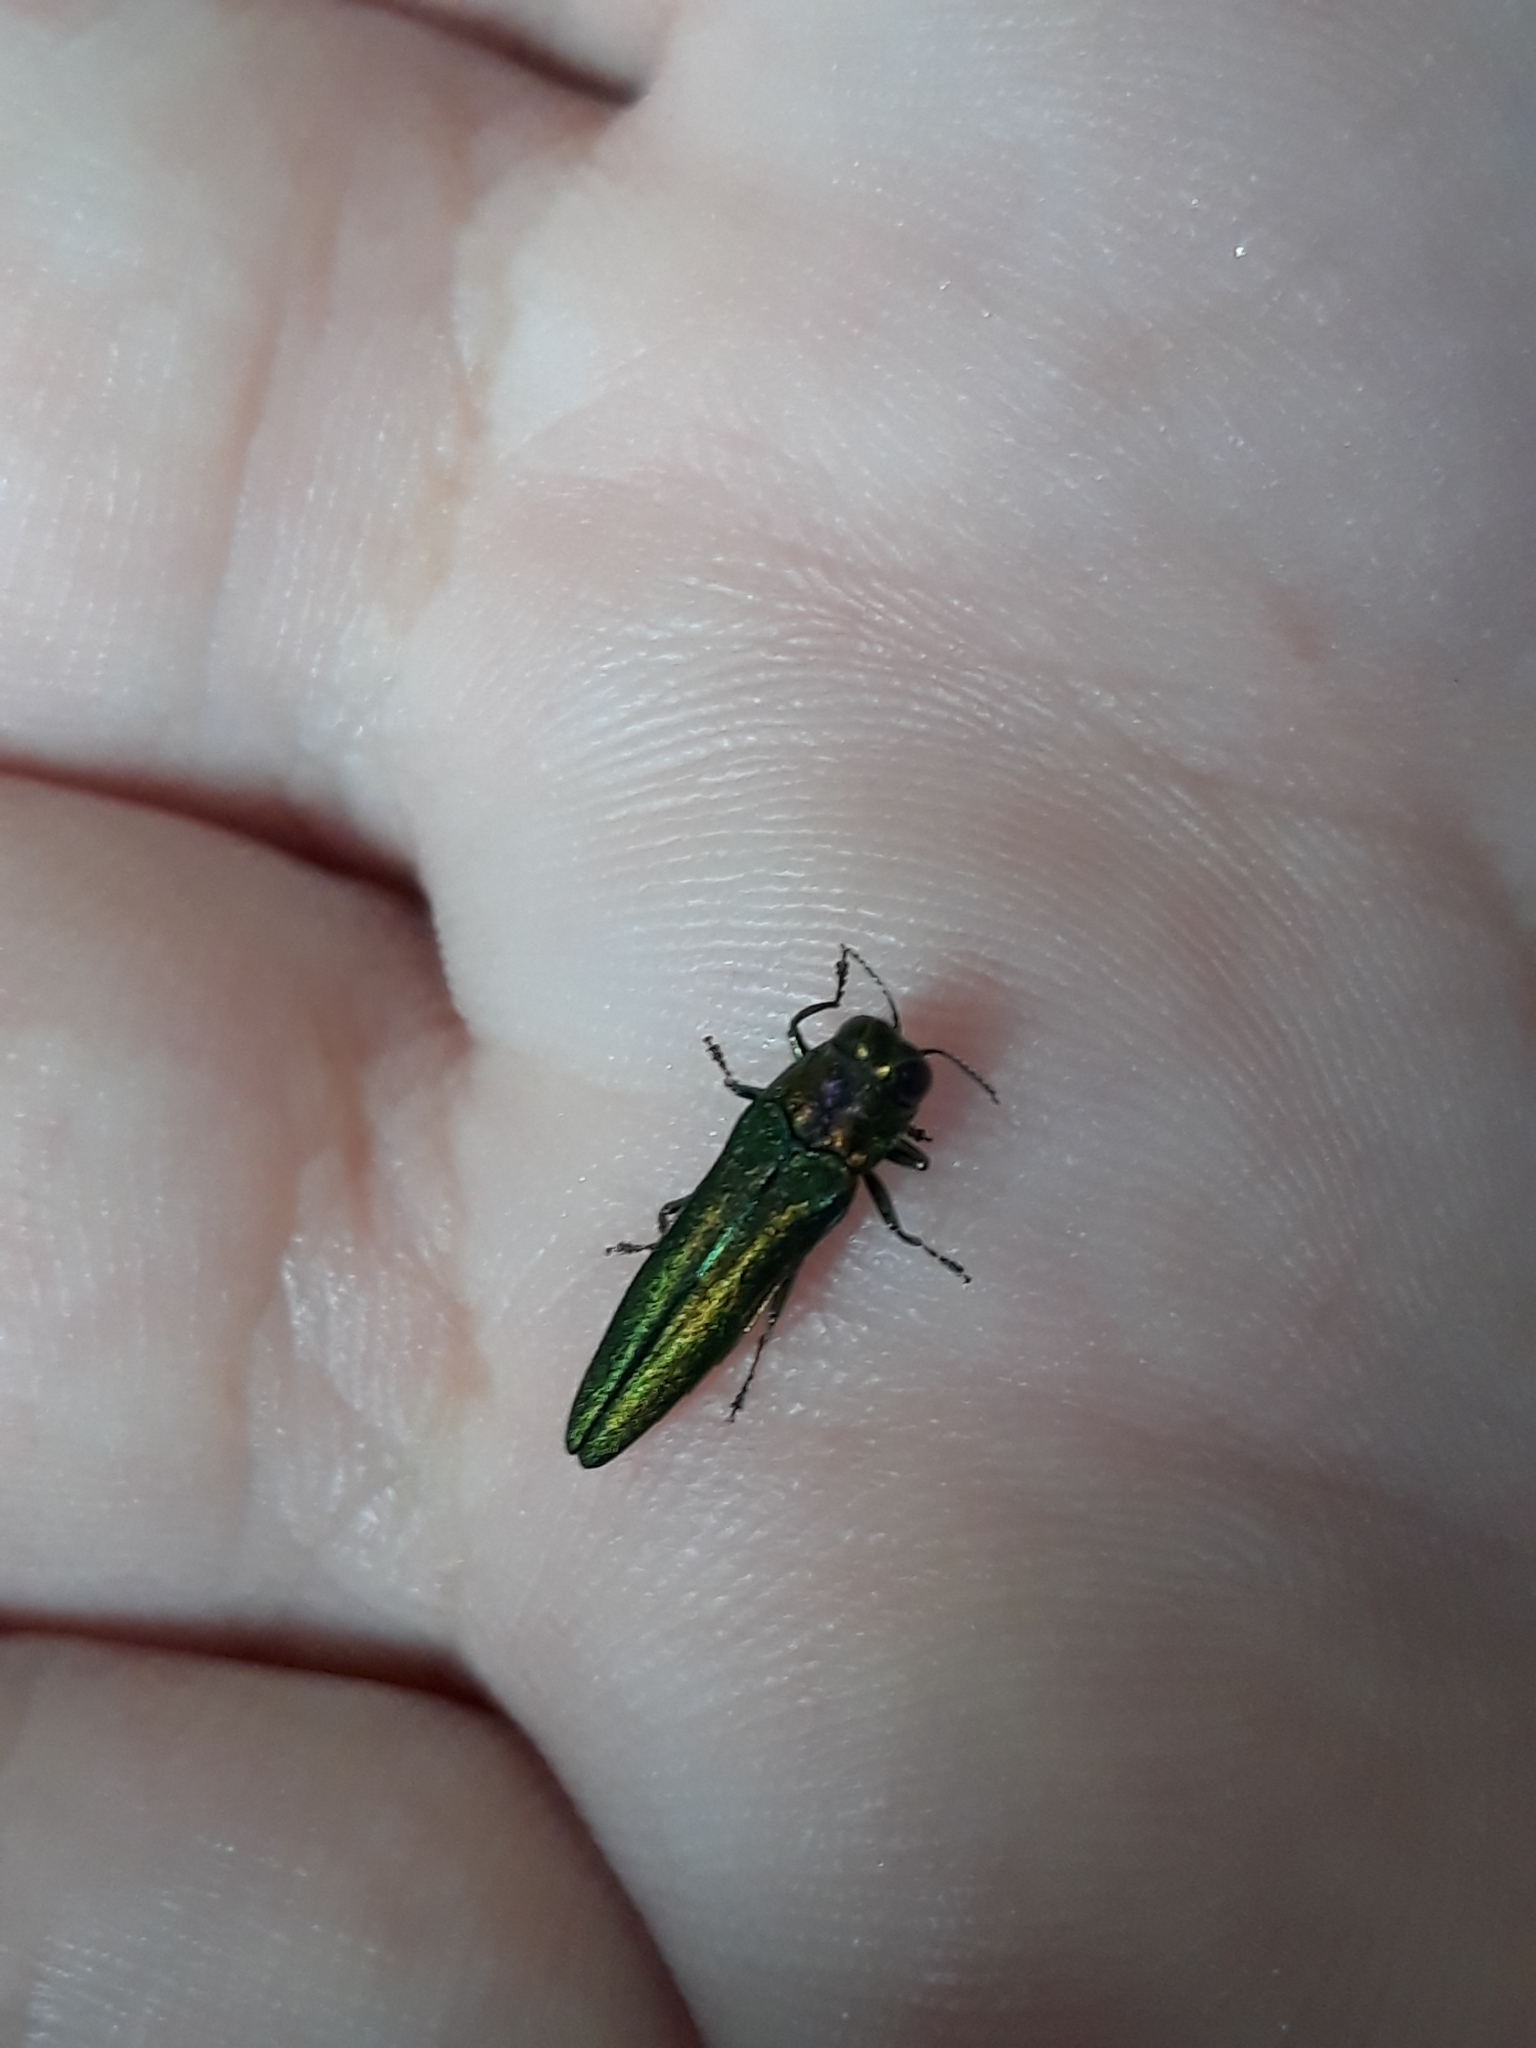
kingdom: Animalia
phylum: Arthropoda
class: Insecta
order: Coleoptera
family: Buprestidae
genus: Agrilus
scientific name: Agrilus planipennis
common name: Emerald ash borer
